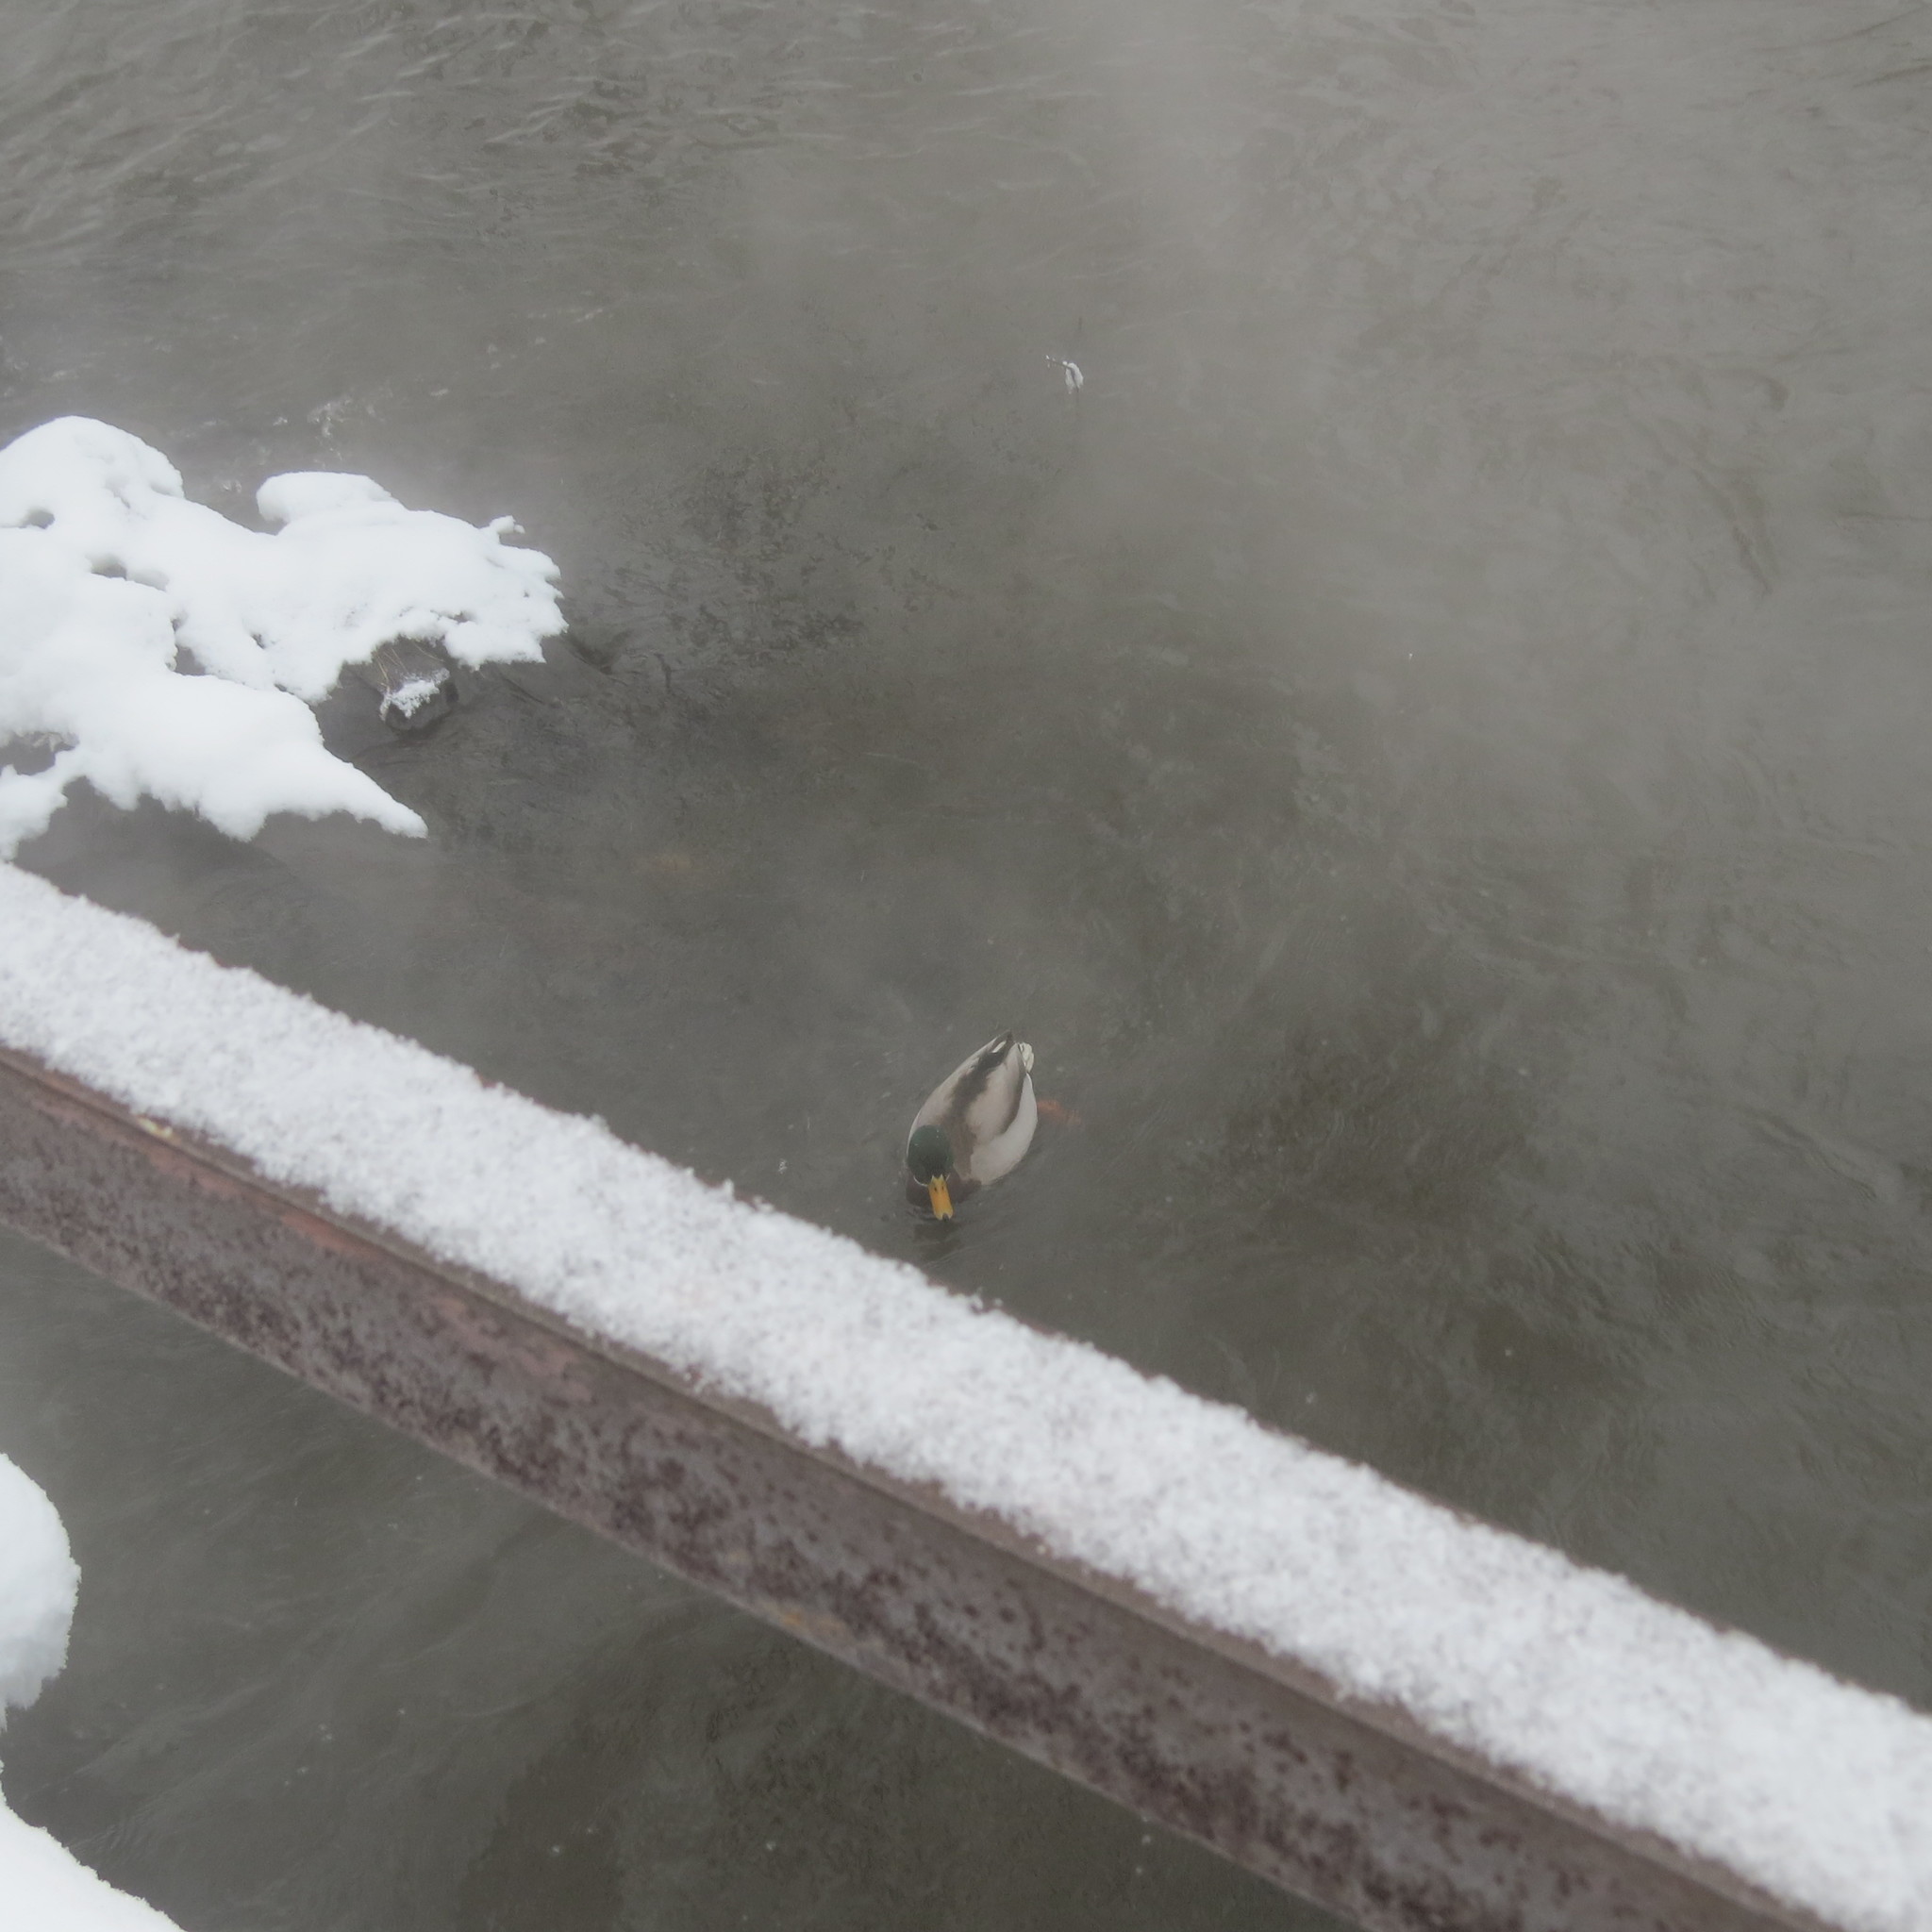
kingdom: Animalia
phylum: Chordata
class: Aves
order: Anseriformes
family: Anatidae
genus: Anas
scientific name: Anas platyrhynchos
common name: Mallard
